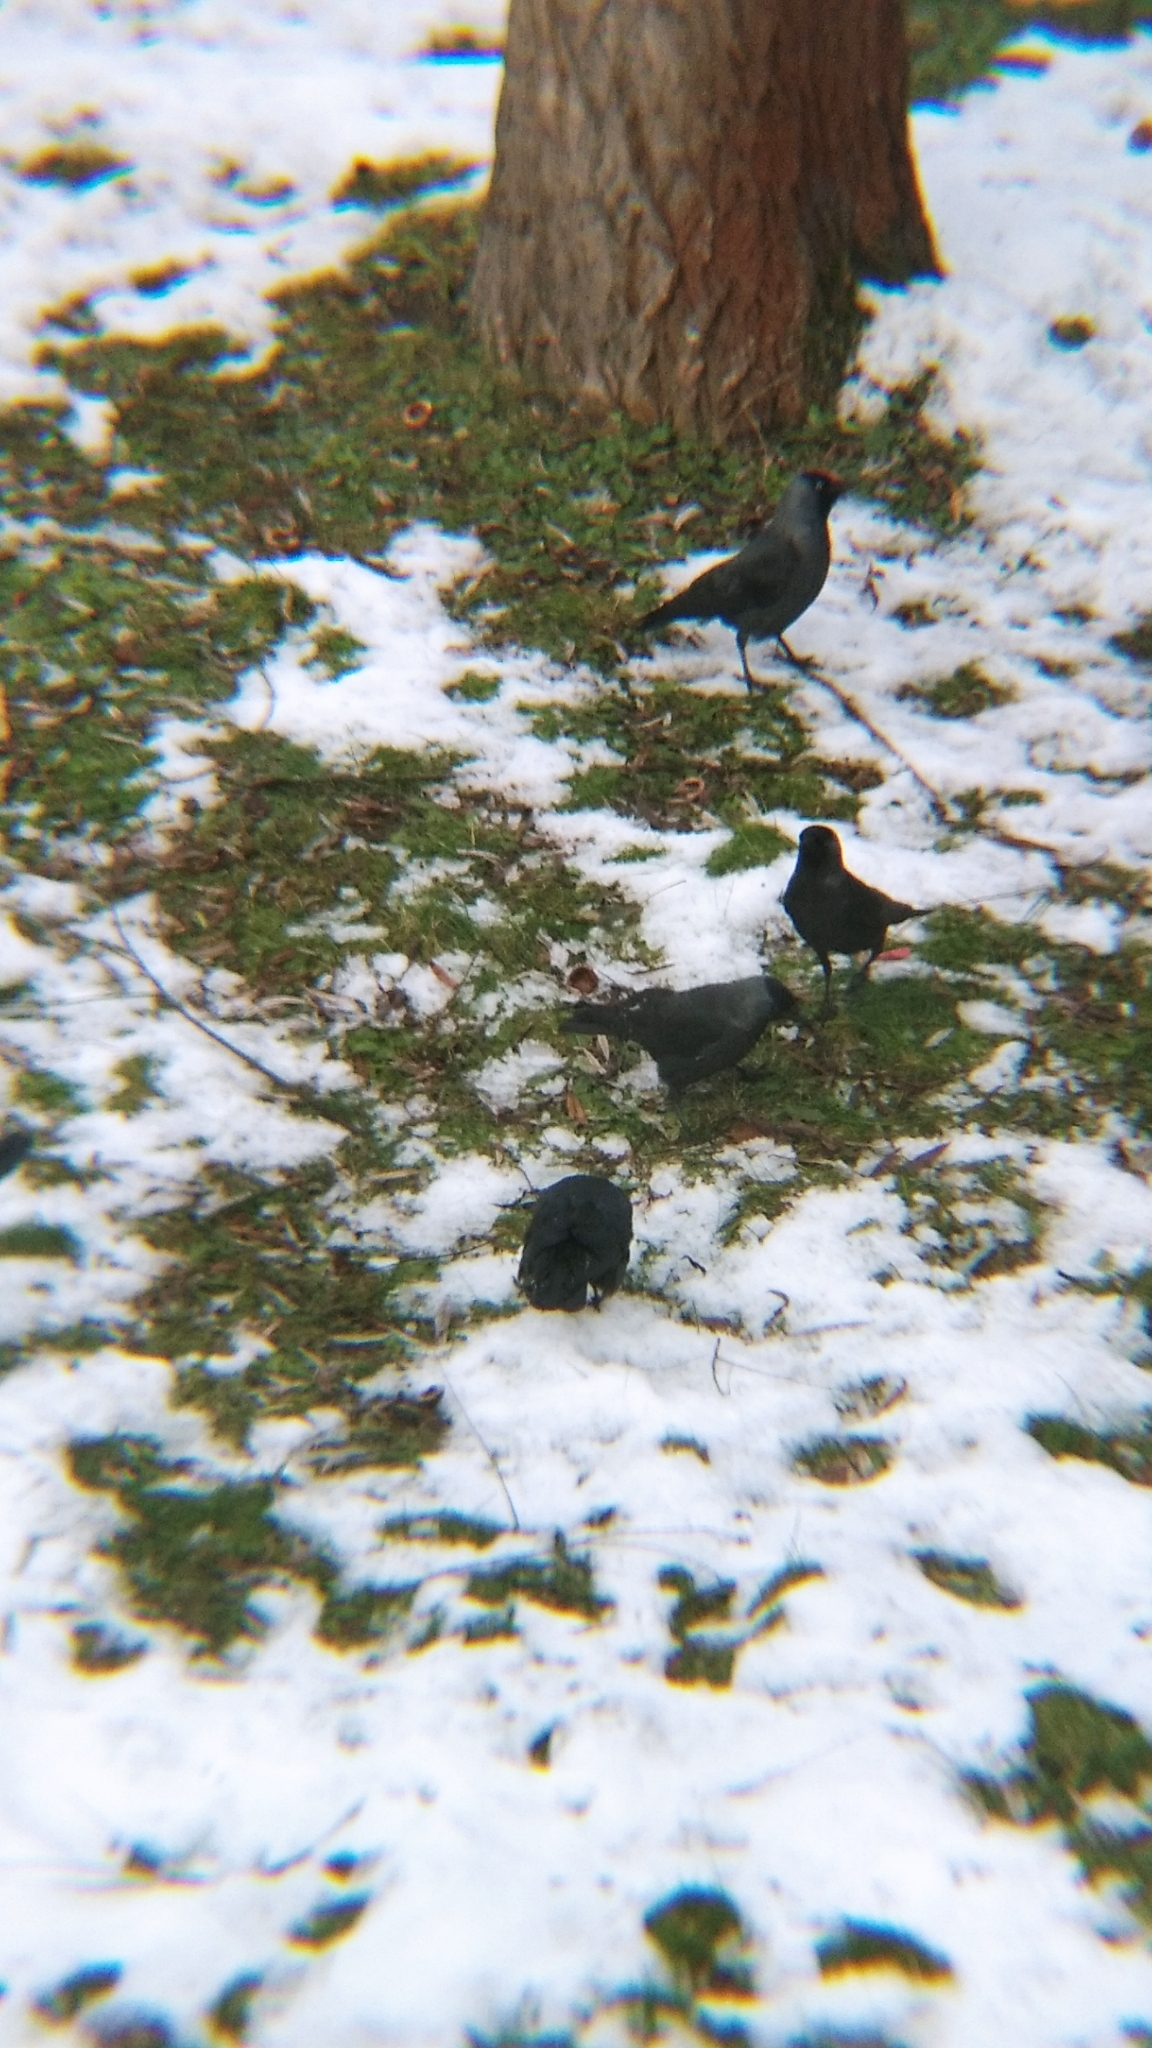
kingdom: Animalia
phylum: Chordata
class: Aves
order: Passeriformes
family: Corvidae
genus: Coloeus
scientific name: Coloeus monedula
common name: Western jackdaw
